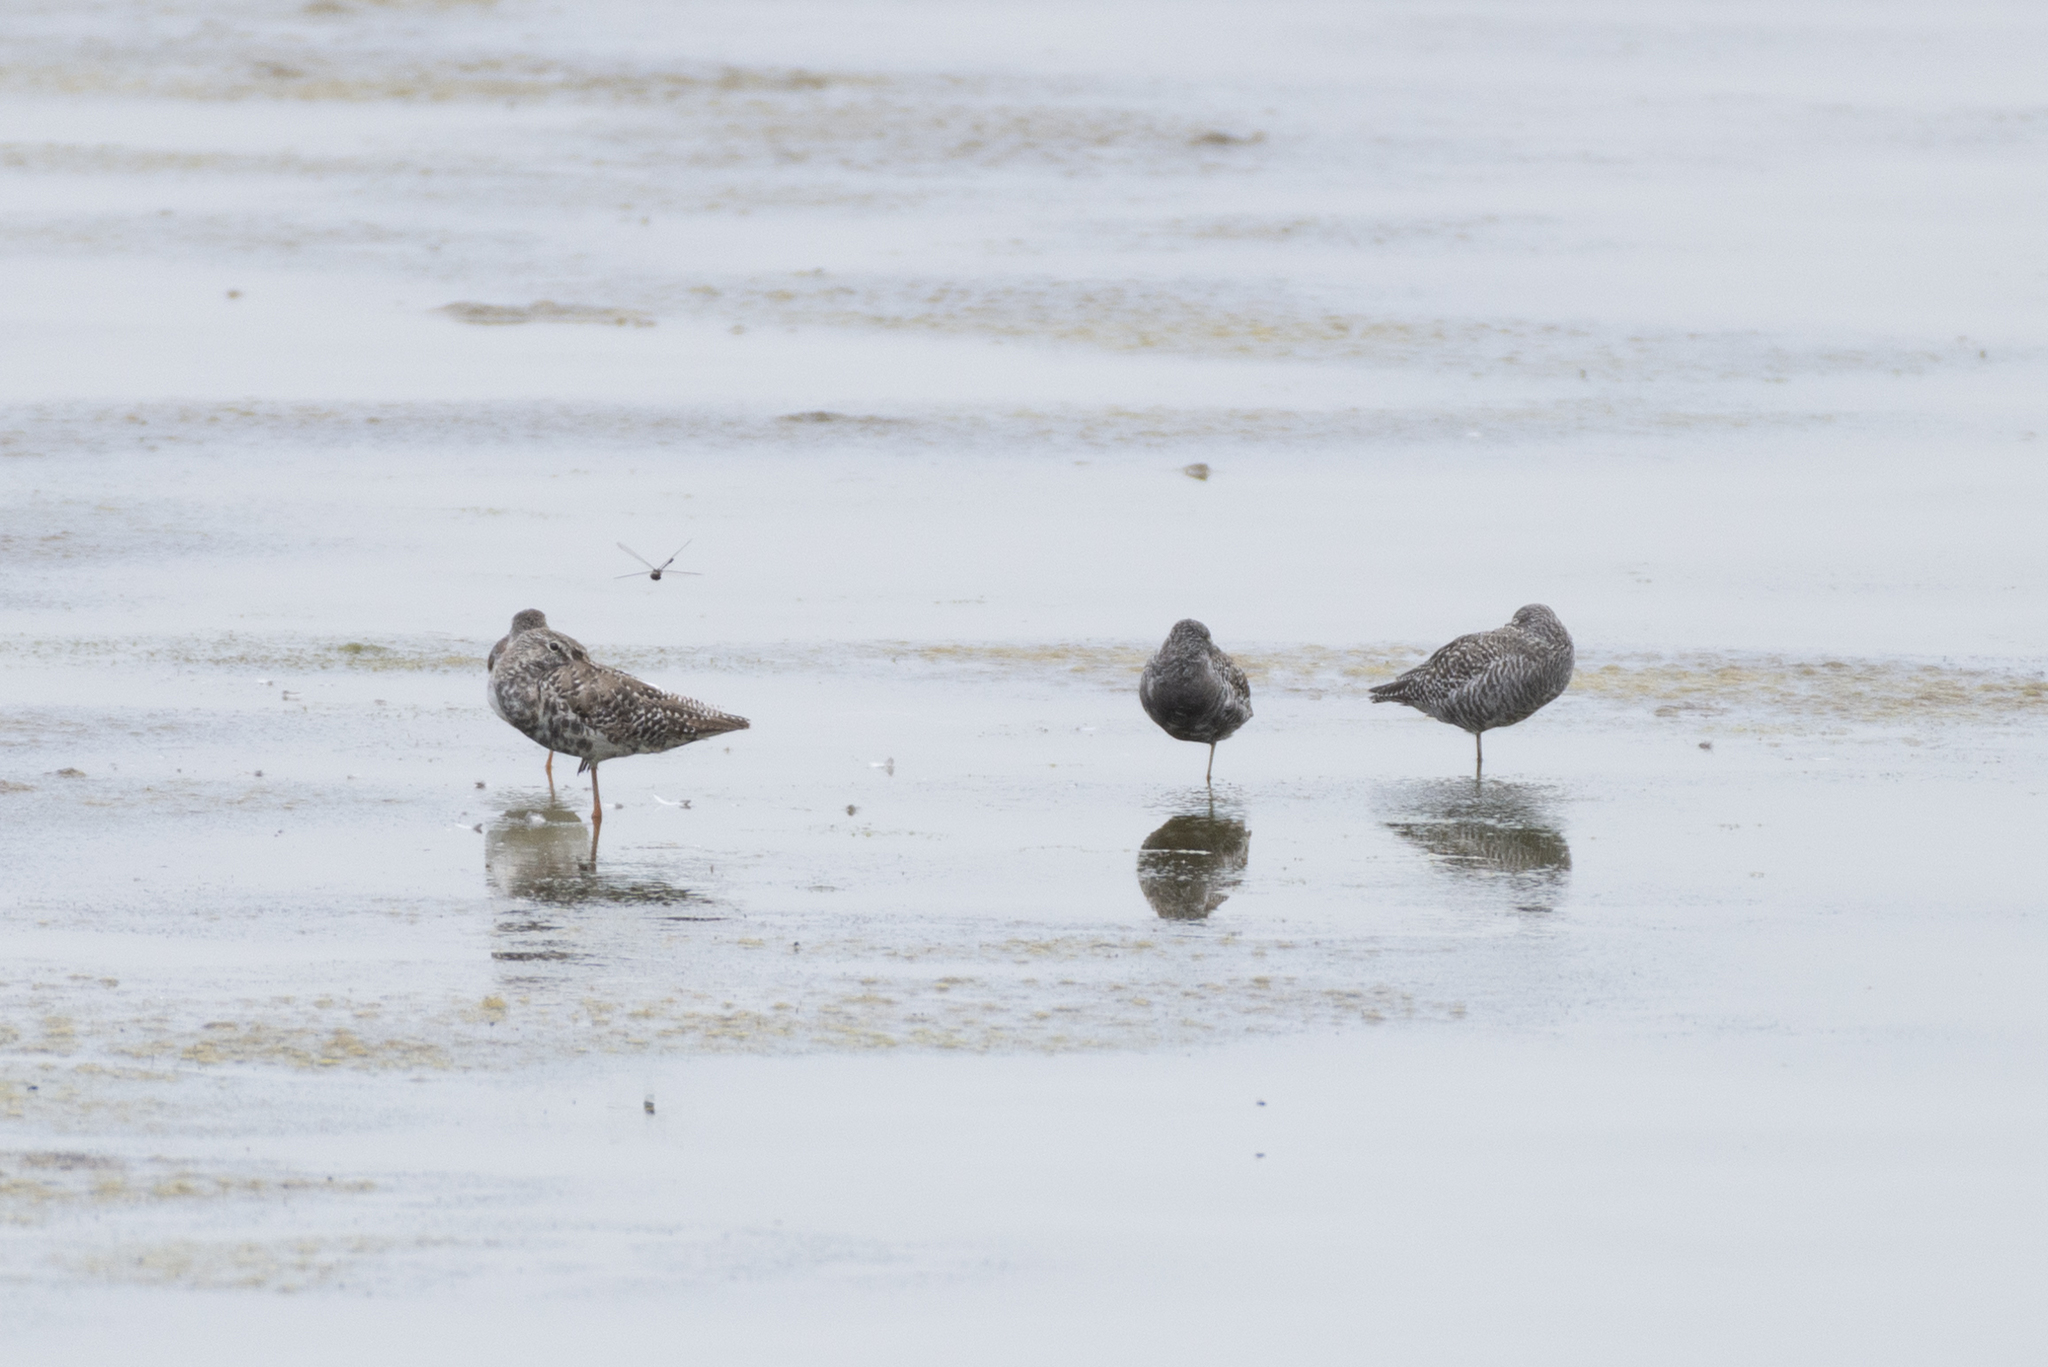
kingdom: Animalia
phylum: Chordata
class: Aves
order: Charadriiformes
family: Scolopacidae
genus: Tringa
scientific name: Tringa erythropus
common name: Spotted redshank
